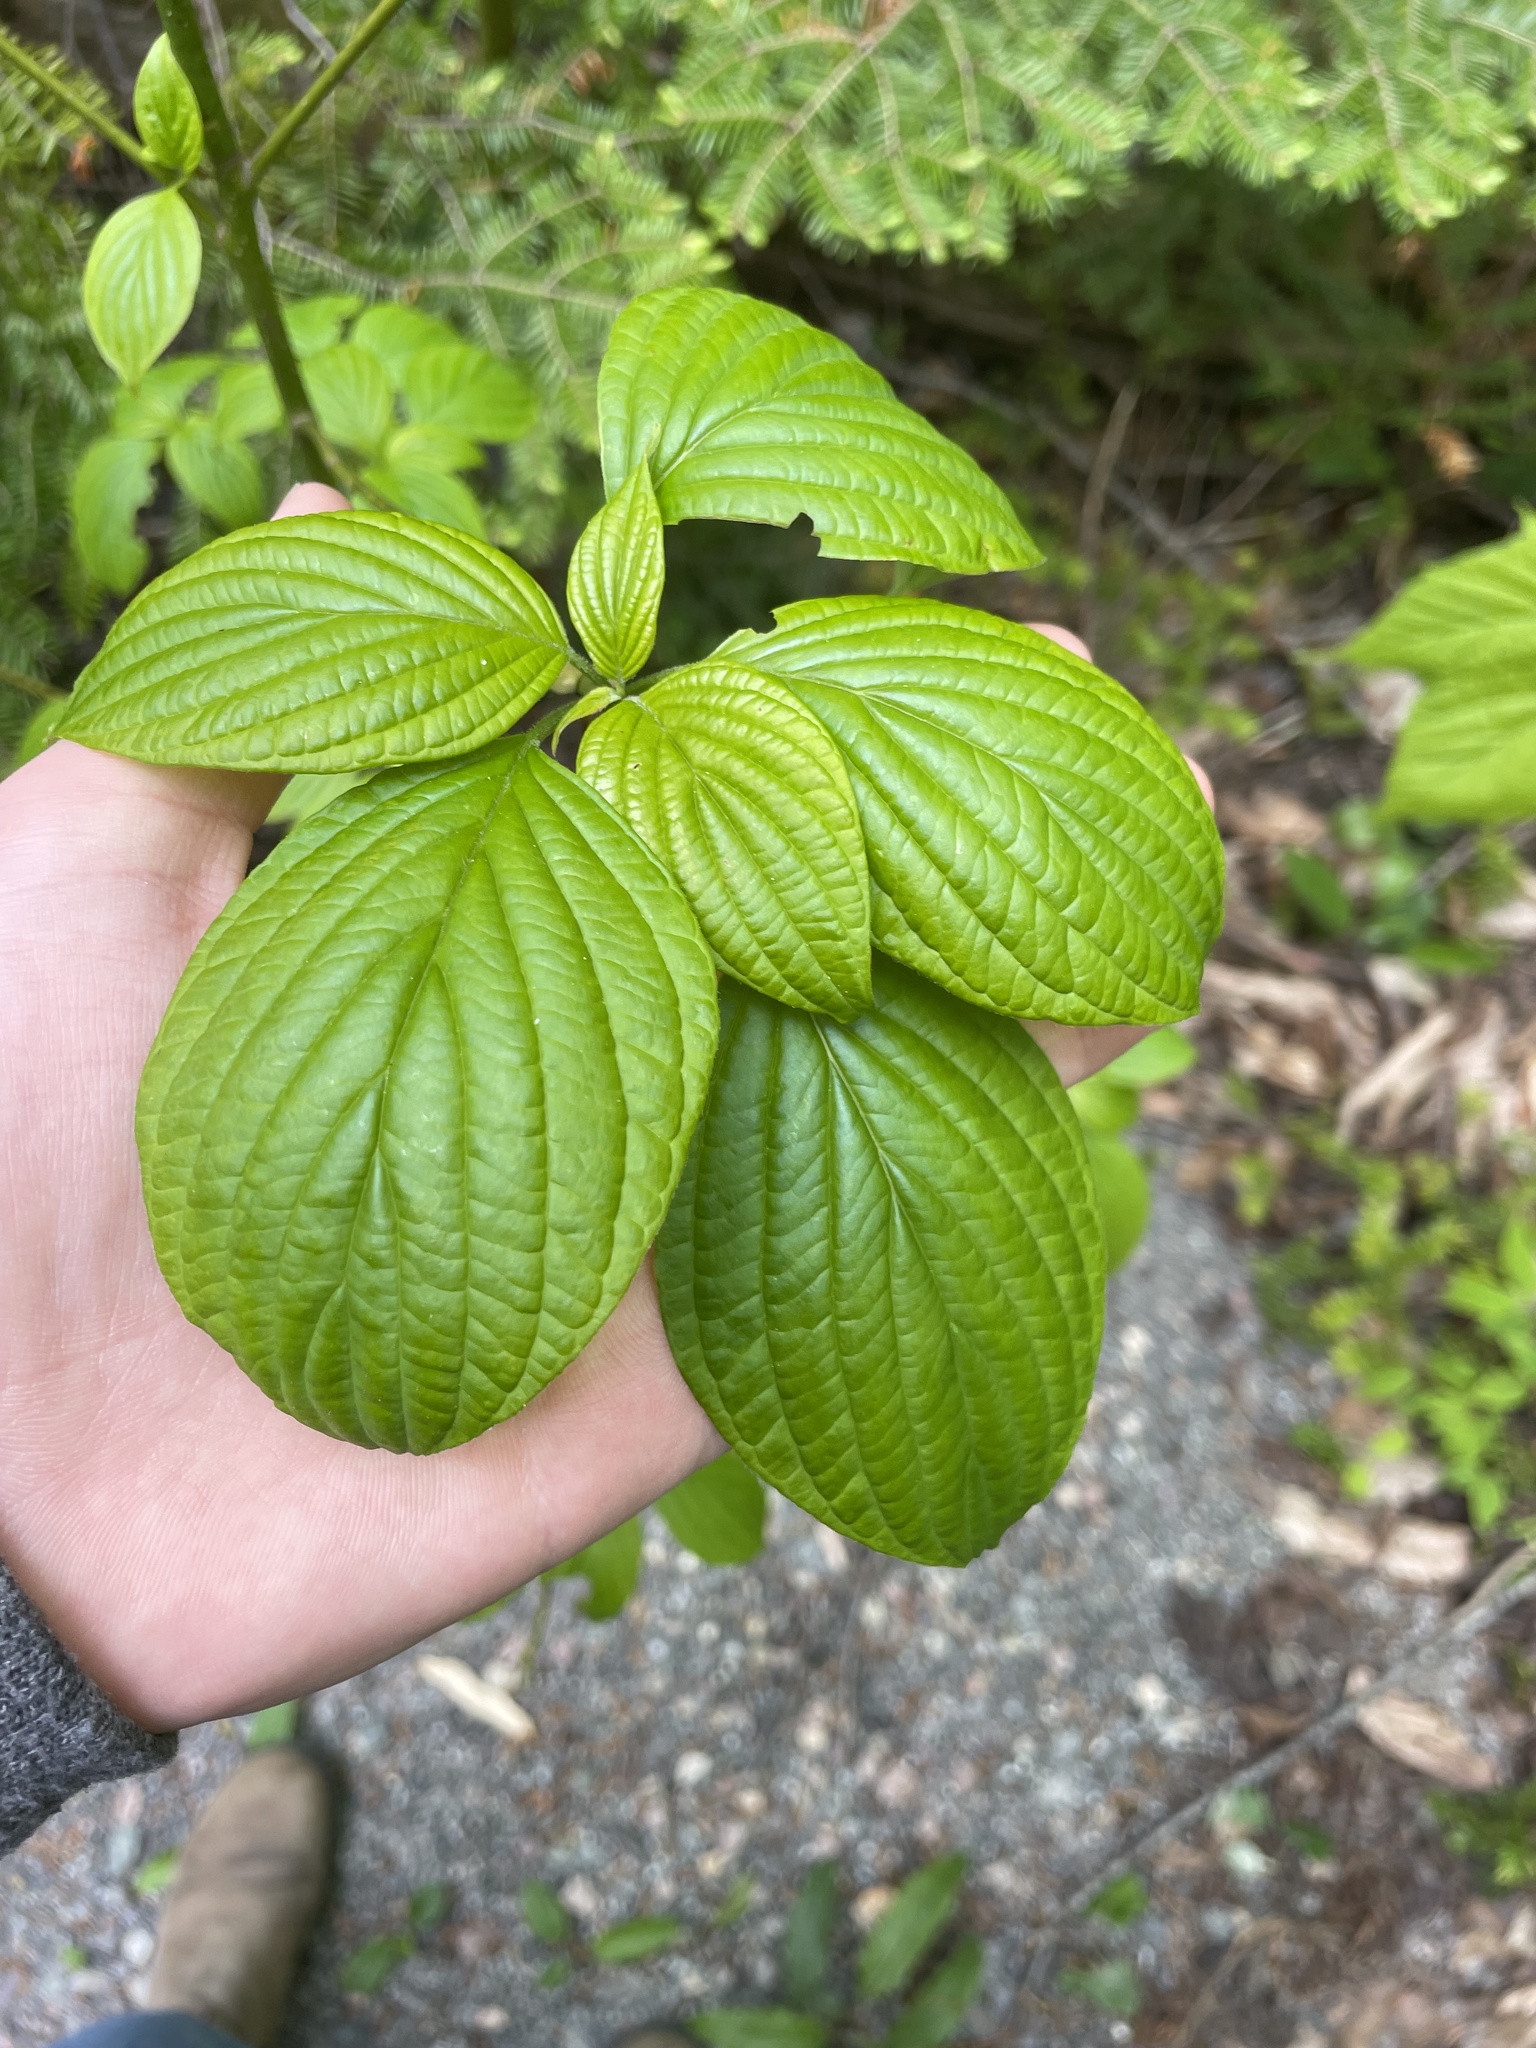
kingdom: Plantae
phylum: Tracheophyta
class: Magnoliopsida
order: Cornales
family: Cornaceae
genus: Cornus
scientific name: Cornus alternifolia
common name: Pagoda dogwood
